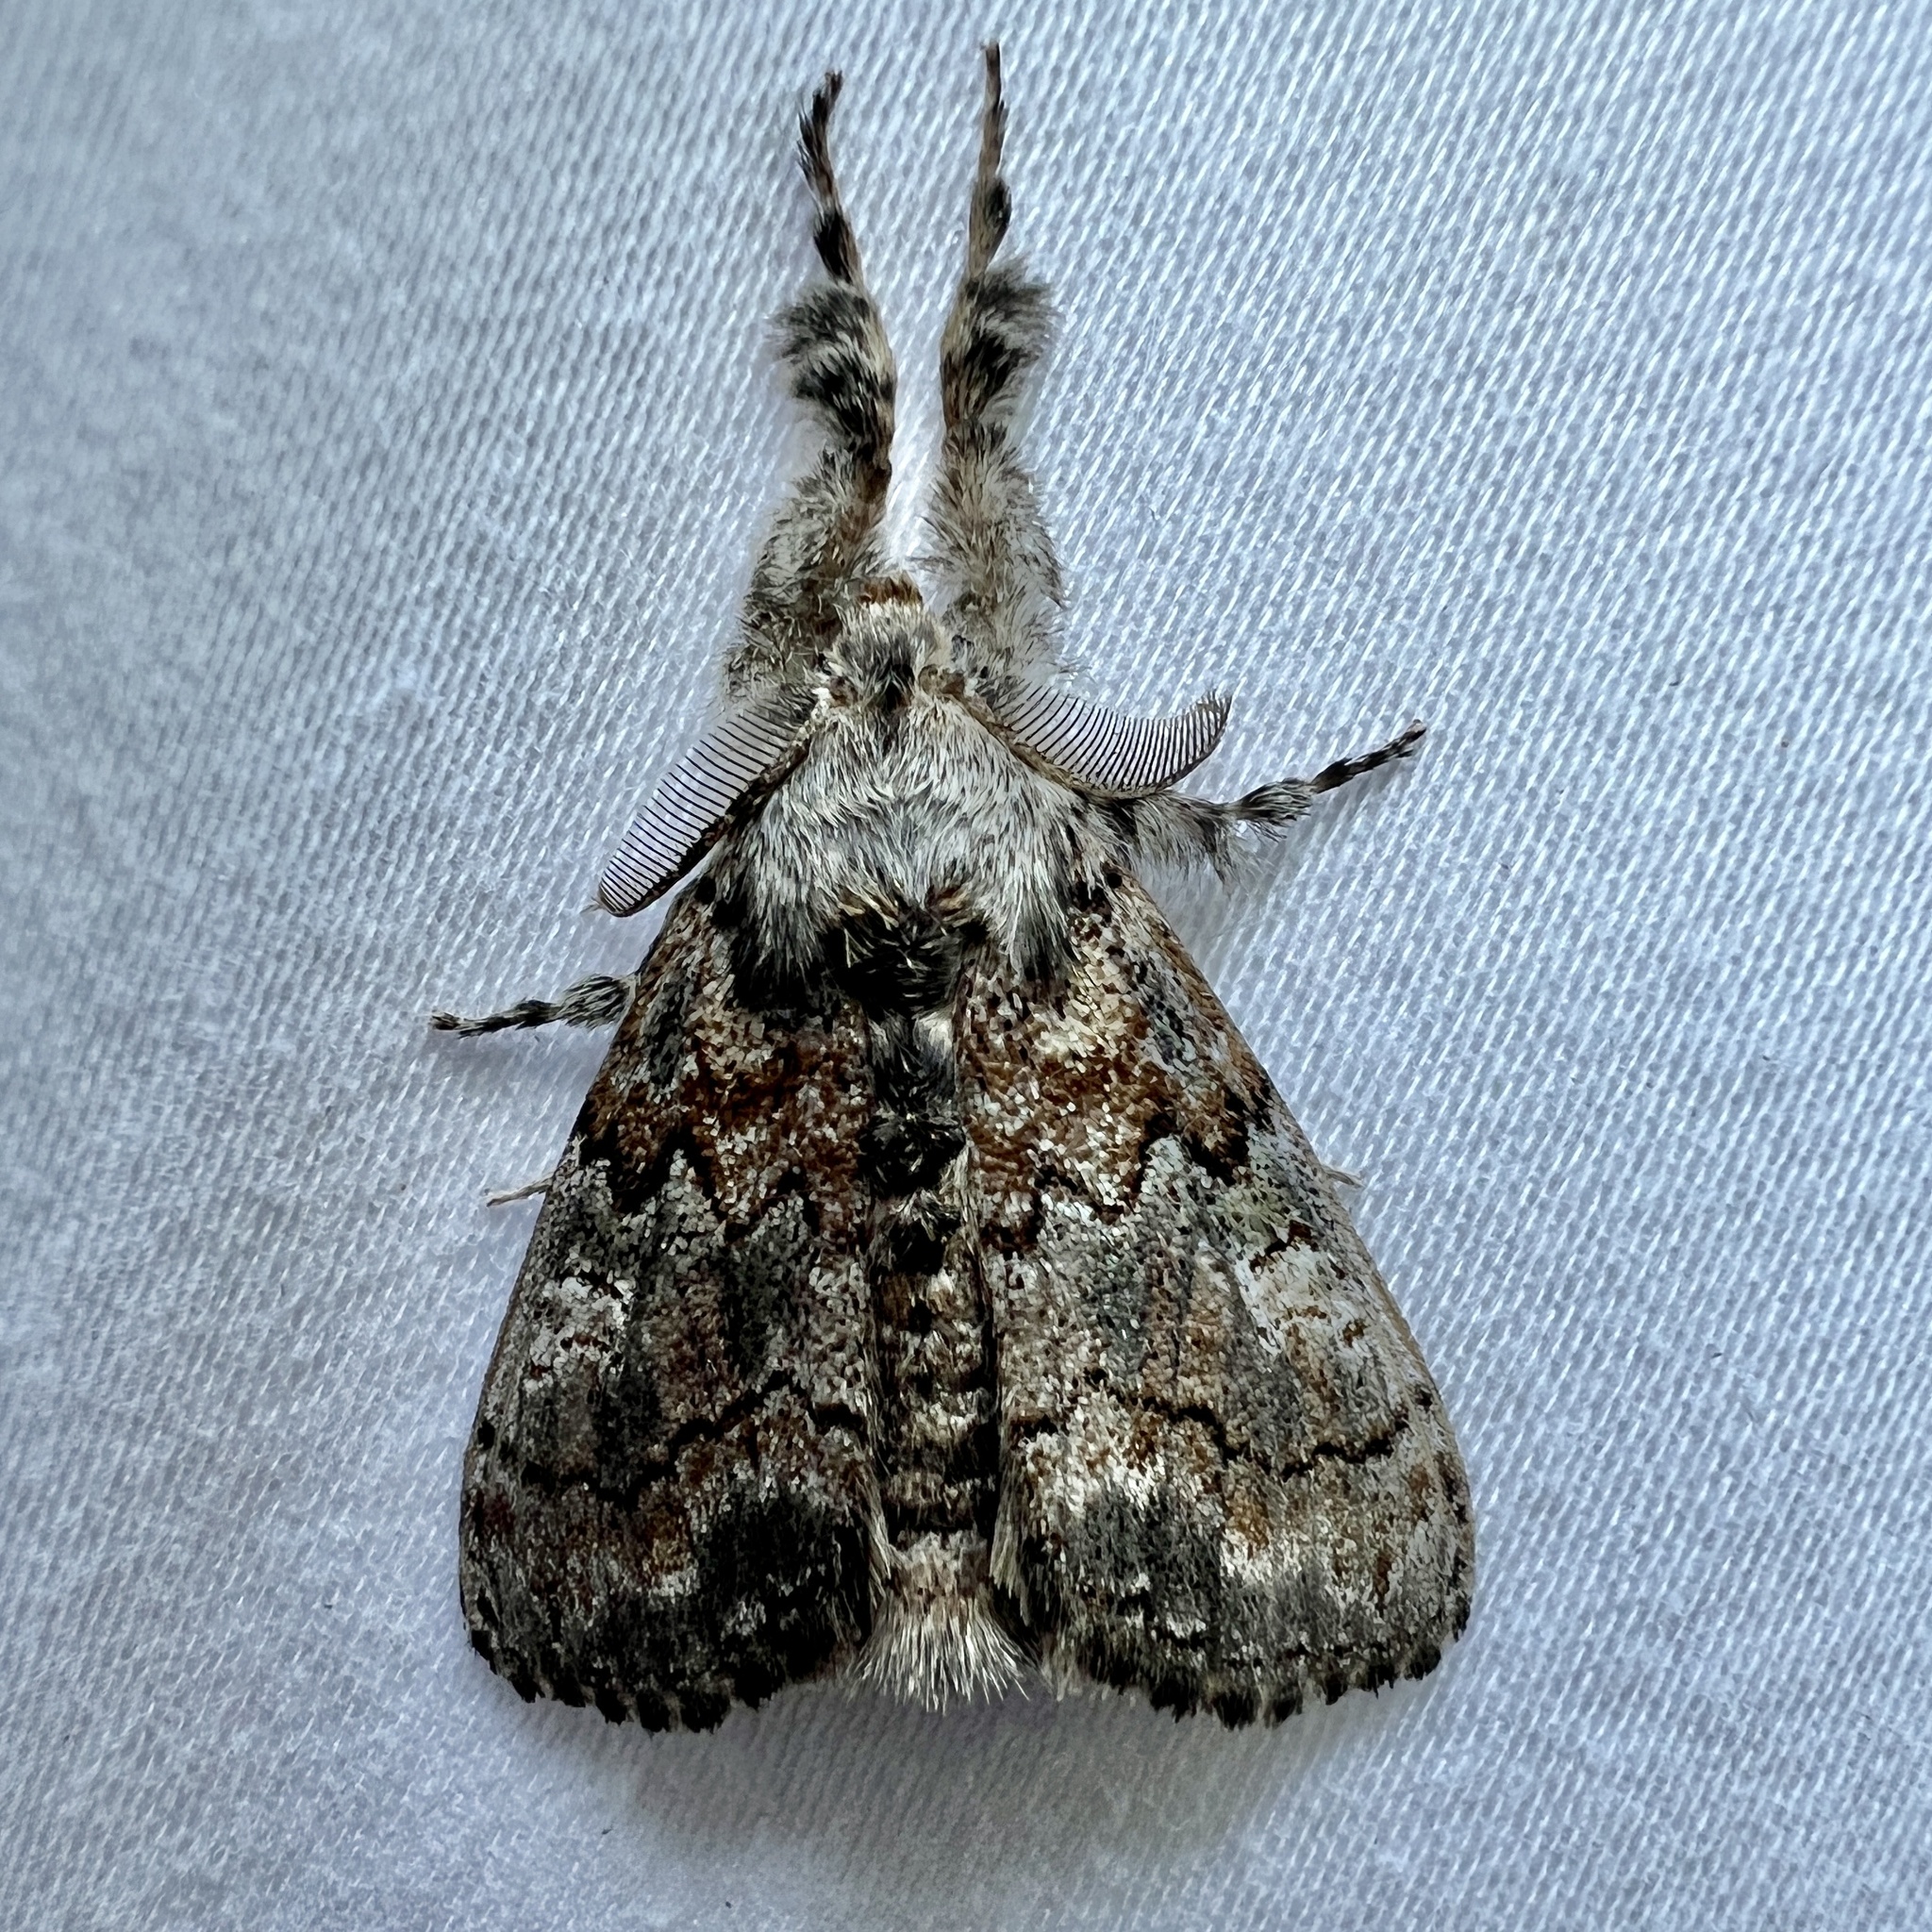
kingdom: Animalia
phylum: Arthropoda
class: Insecta
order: Lepidoptera
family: Erebidae
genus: Dasychira
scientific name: Dasychira vagans
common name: Variable tussock moth
